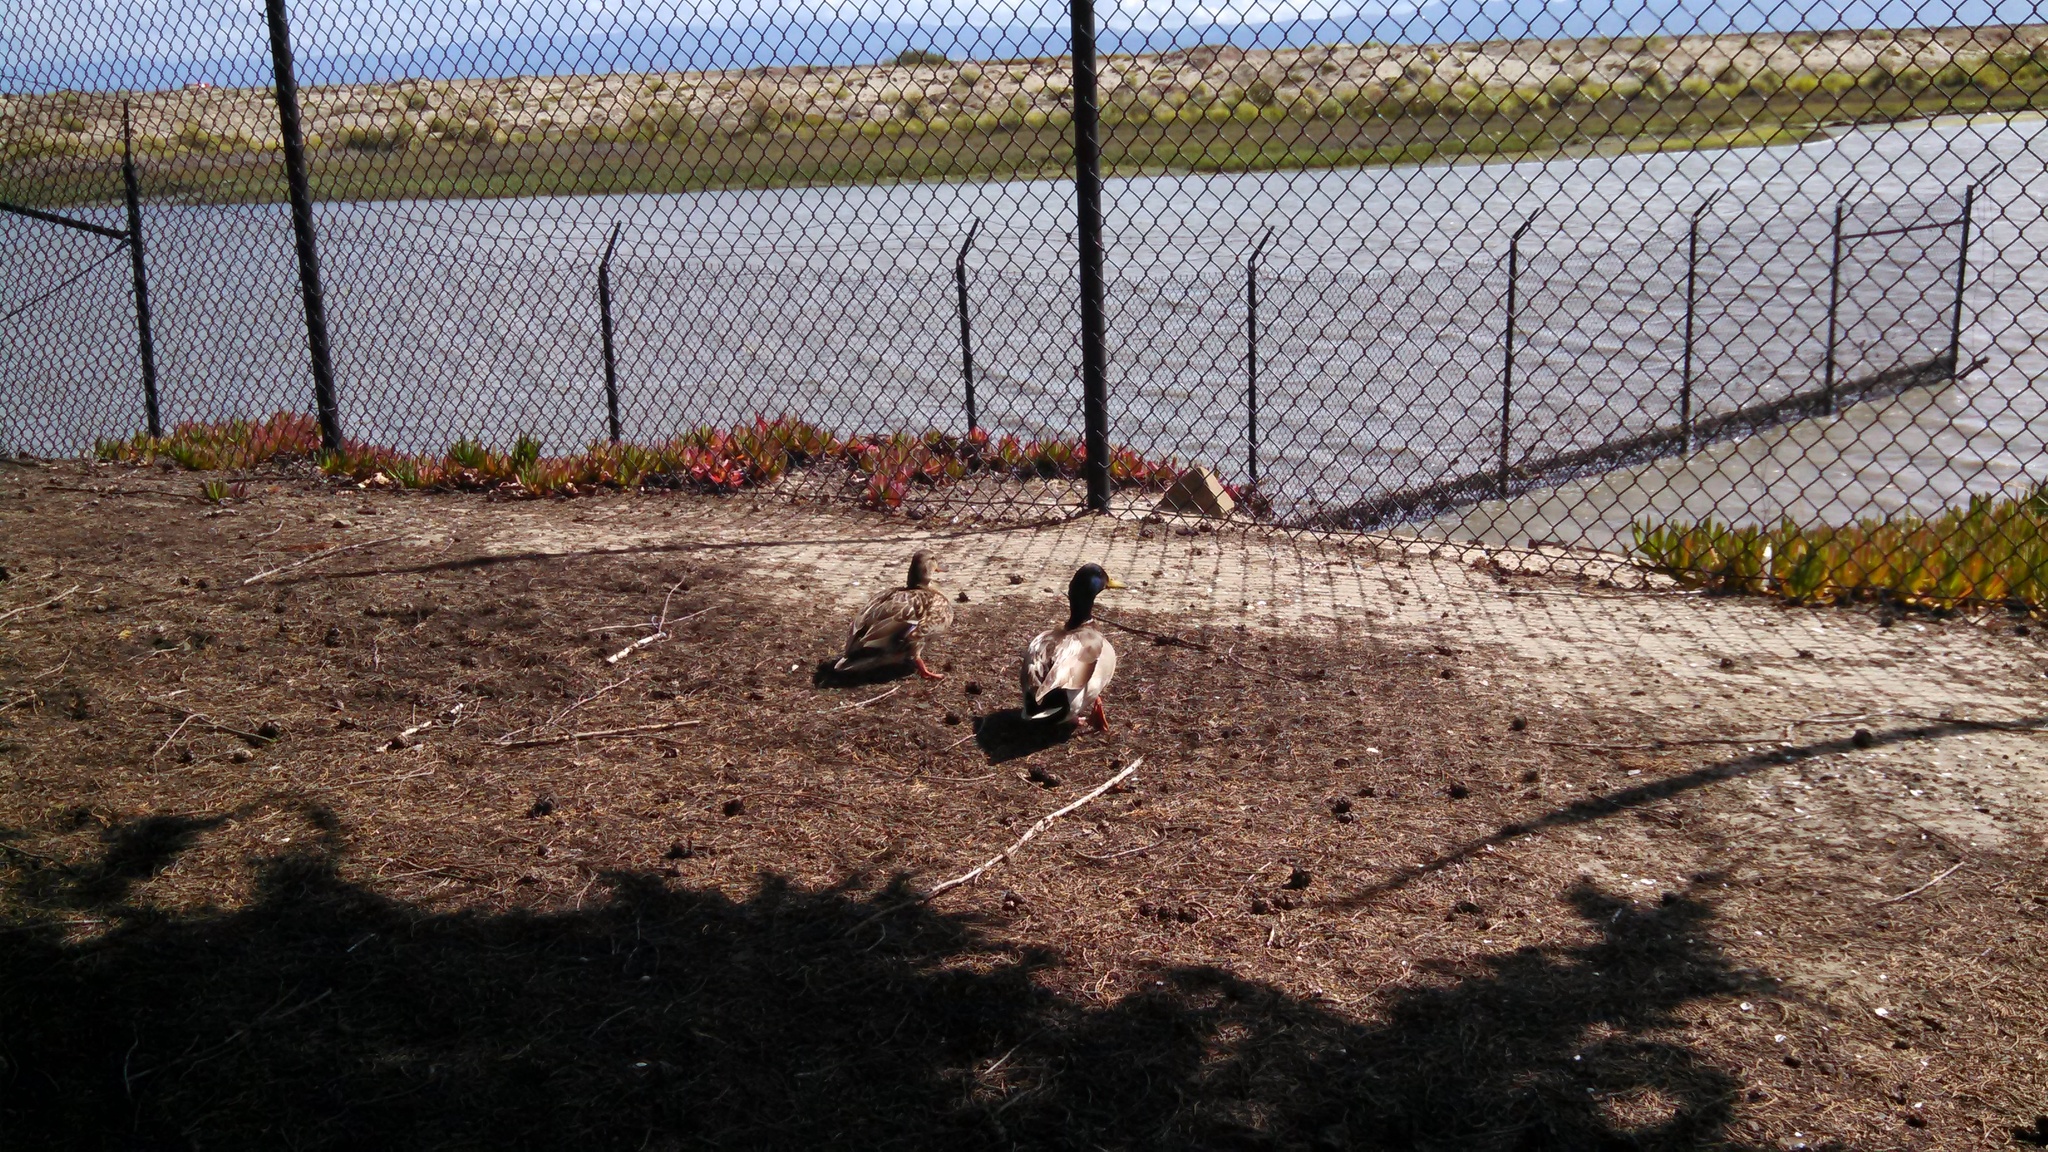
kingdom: Animalia
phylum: Chordata
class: Aves
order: Anseriformes
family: Anatidae
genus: Anas
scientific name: Anas platyrhynchos
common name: Mallard
